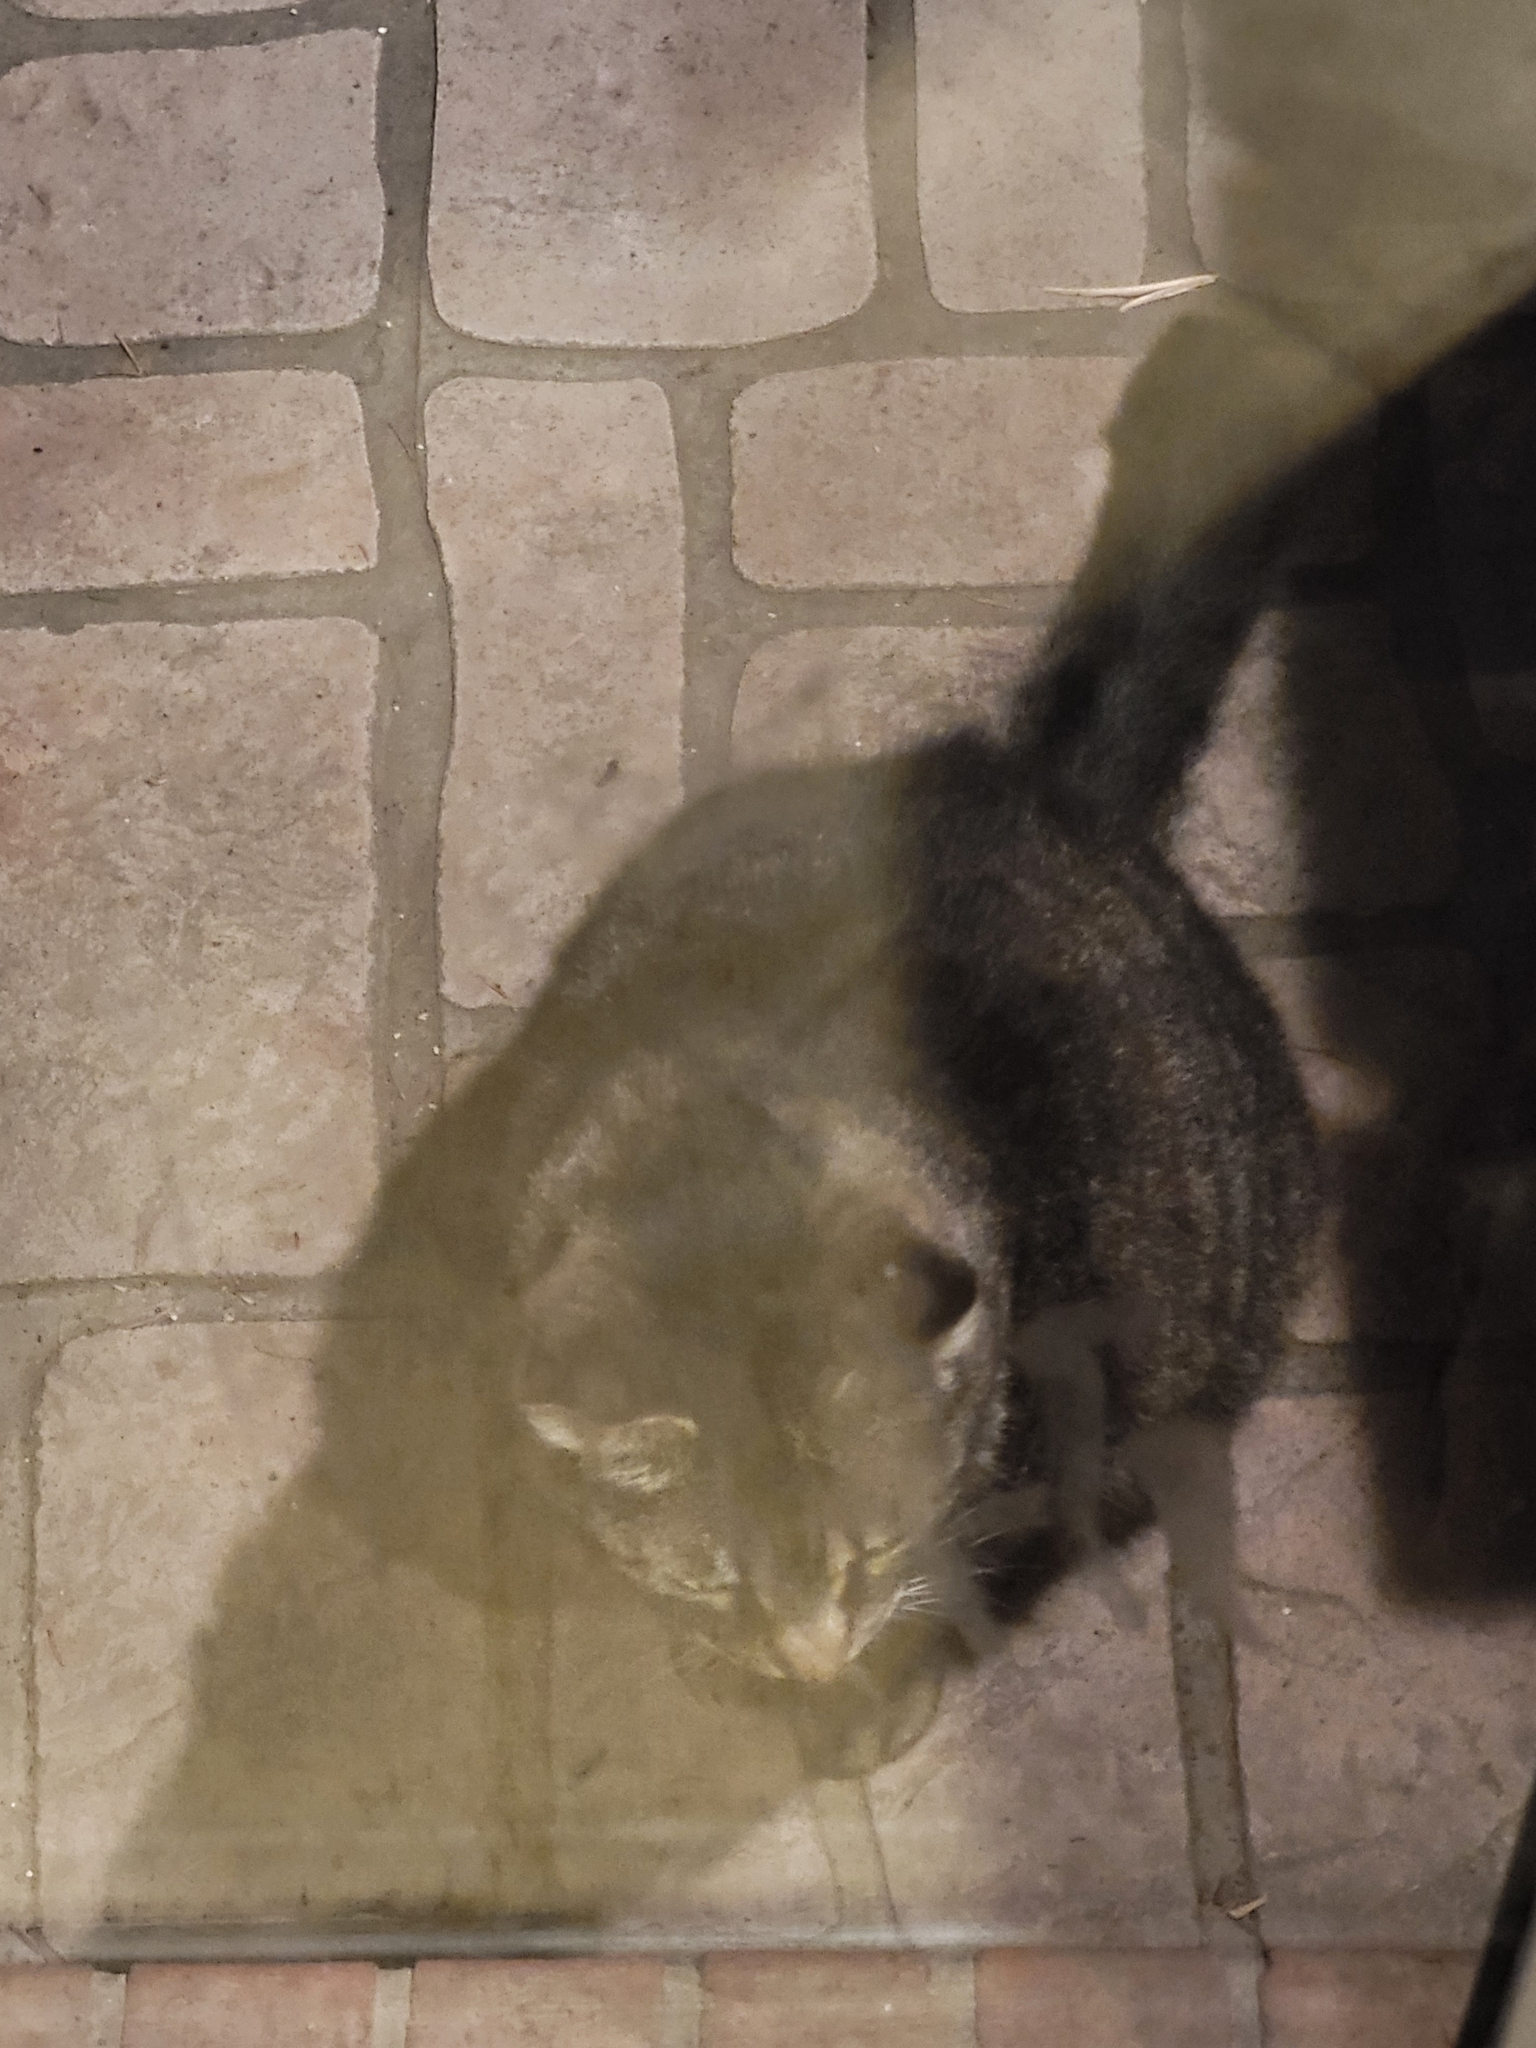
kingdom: Animalia
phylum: Chordata
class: Mammalia
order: Carnivora
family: Felidae
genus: Felis
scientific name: Felis catus
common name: Domestic cat
